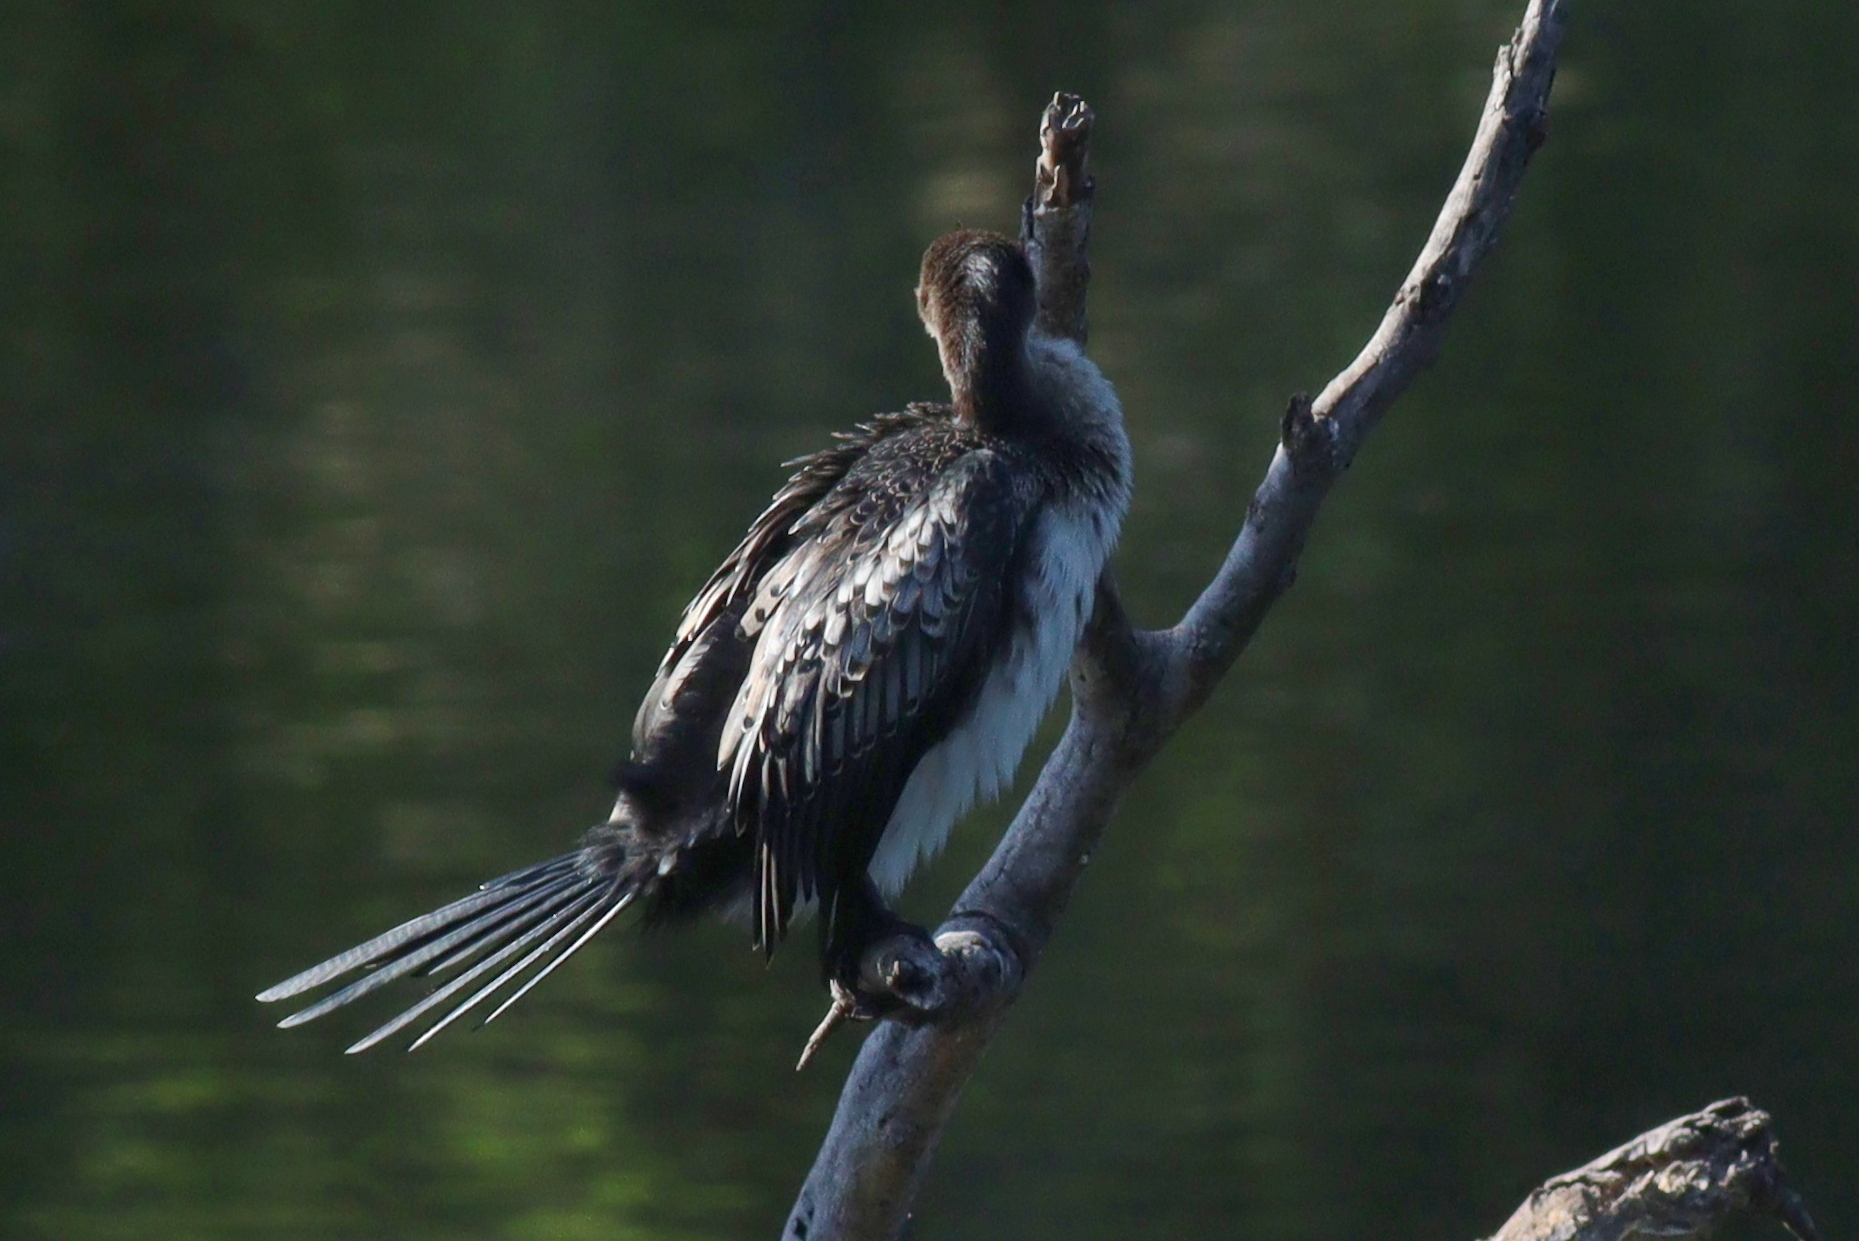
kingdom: Animalia
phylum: Chordata
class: Aves
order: Suliformes
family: Phalacrocoracidae
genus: Microcarbo
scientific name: Microcarbo africanus
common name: Long-tailed cormorant
